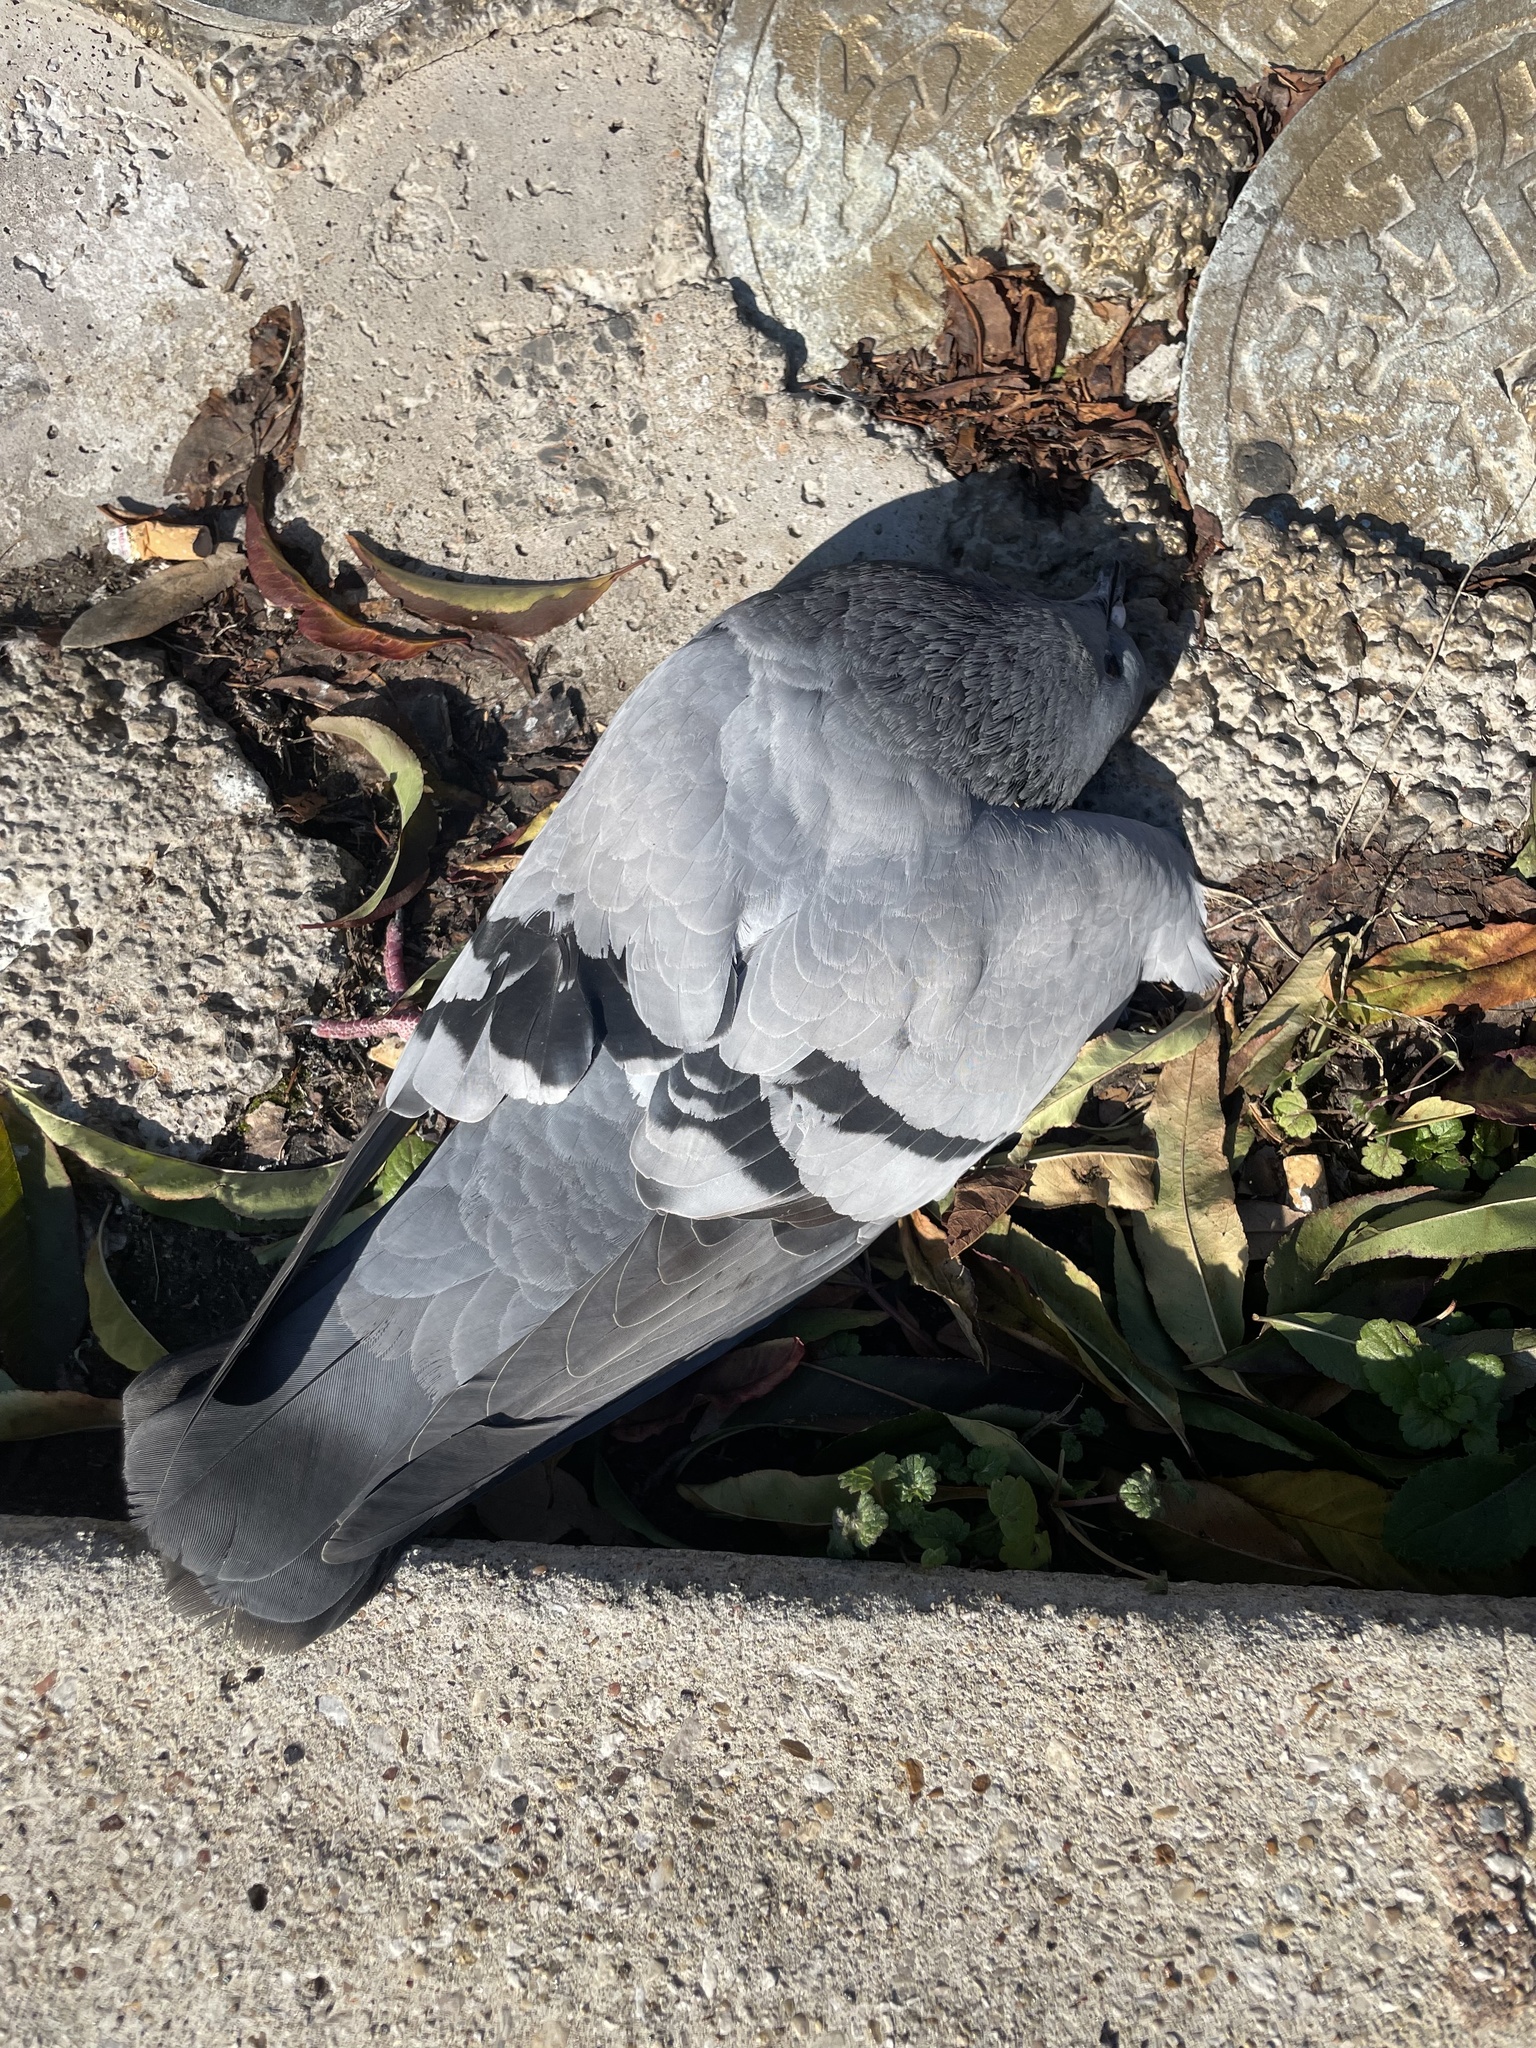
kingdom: Animalia
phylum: Chordata
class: Aves
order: Columbiformes
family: Columbidae
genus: Columba
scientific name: Columba livia
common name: Rock pigeon
